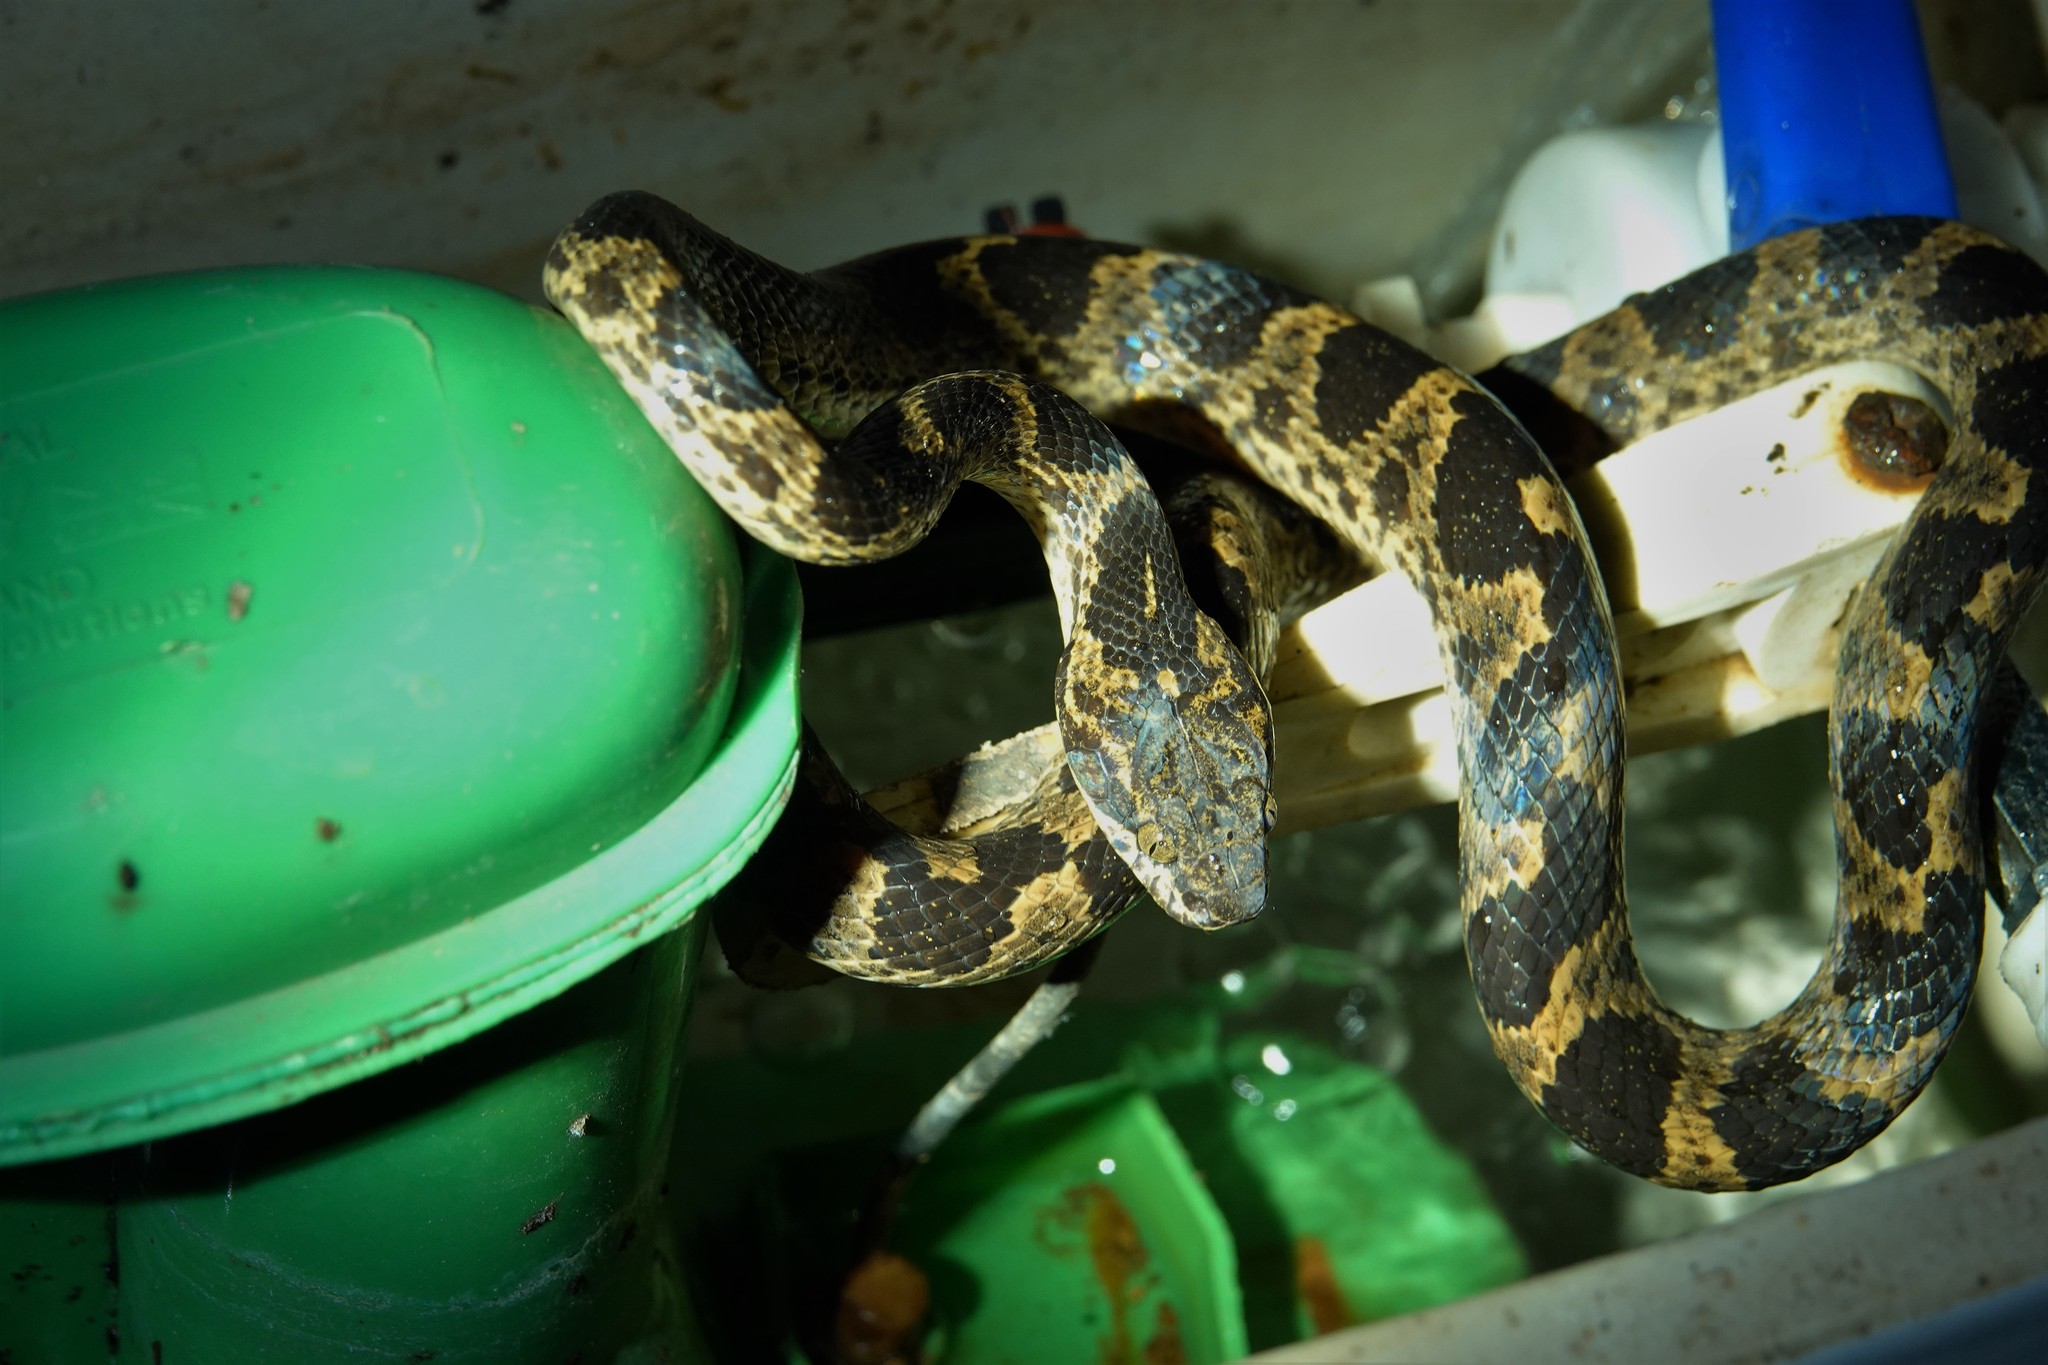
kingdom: Animalia
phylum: Chordata
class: Squamata
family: Colubridae
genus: Leptodeira
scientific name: Leptodeira annulata
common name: Banded cat-eyed snake
